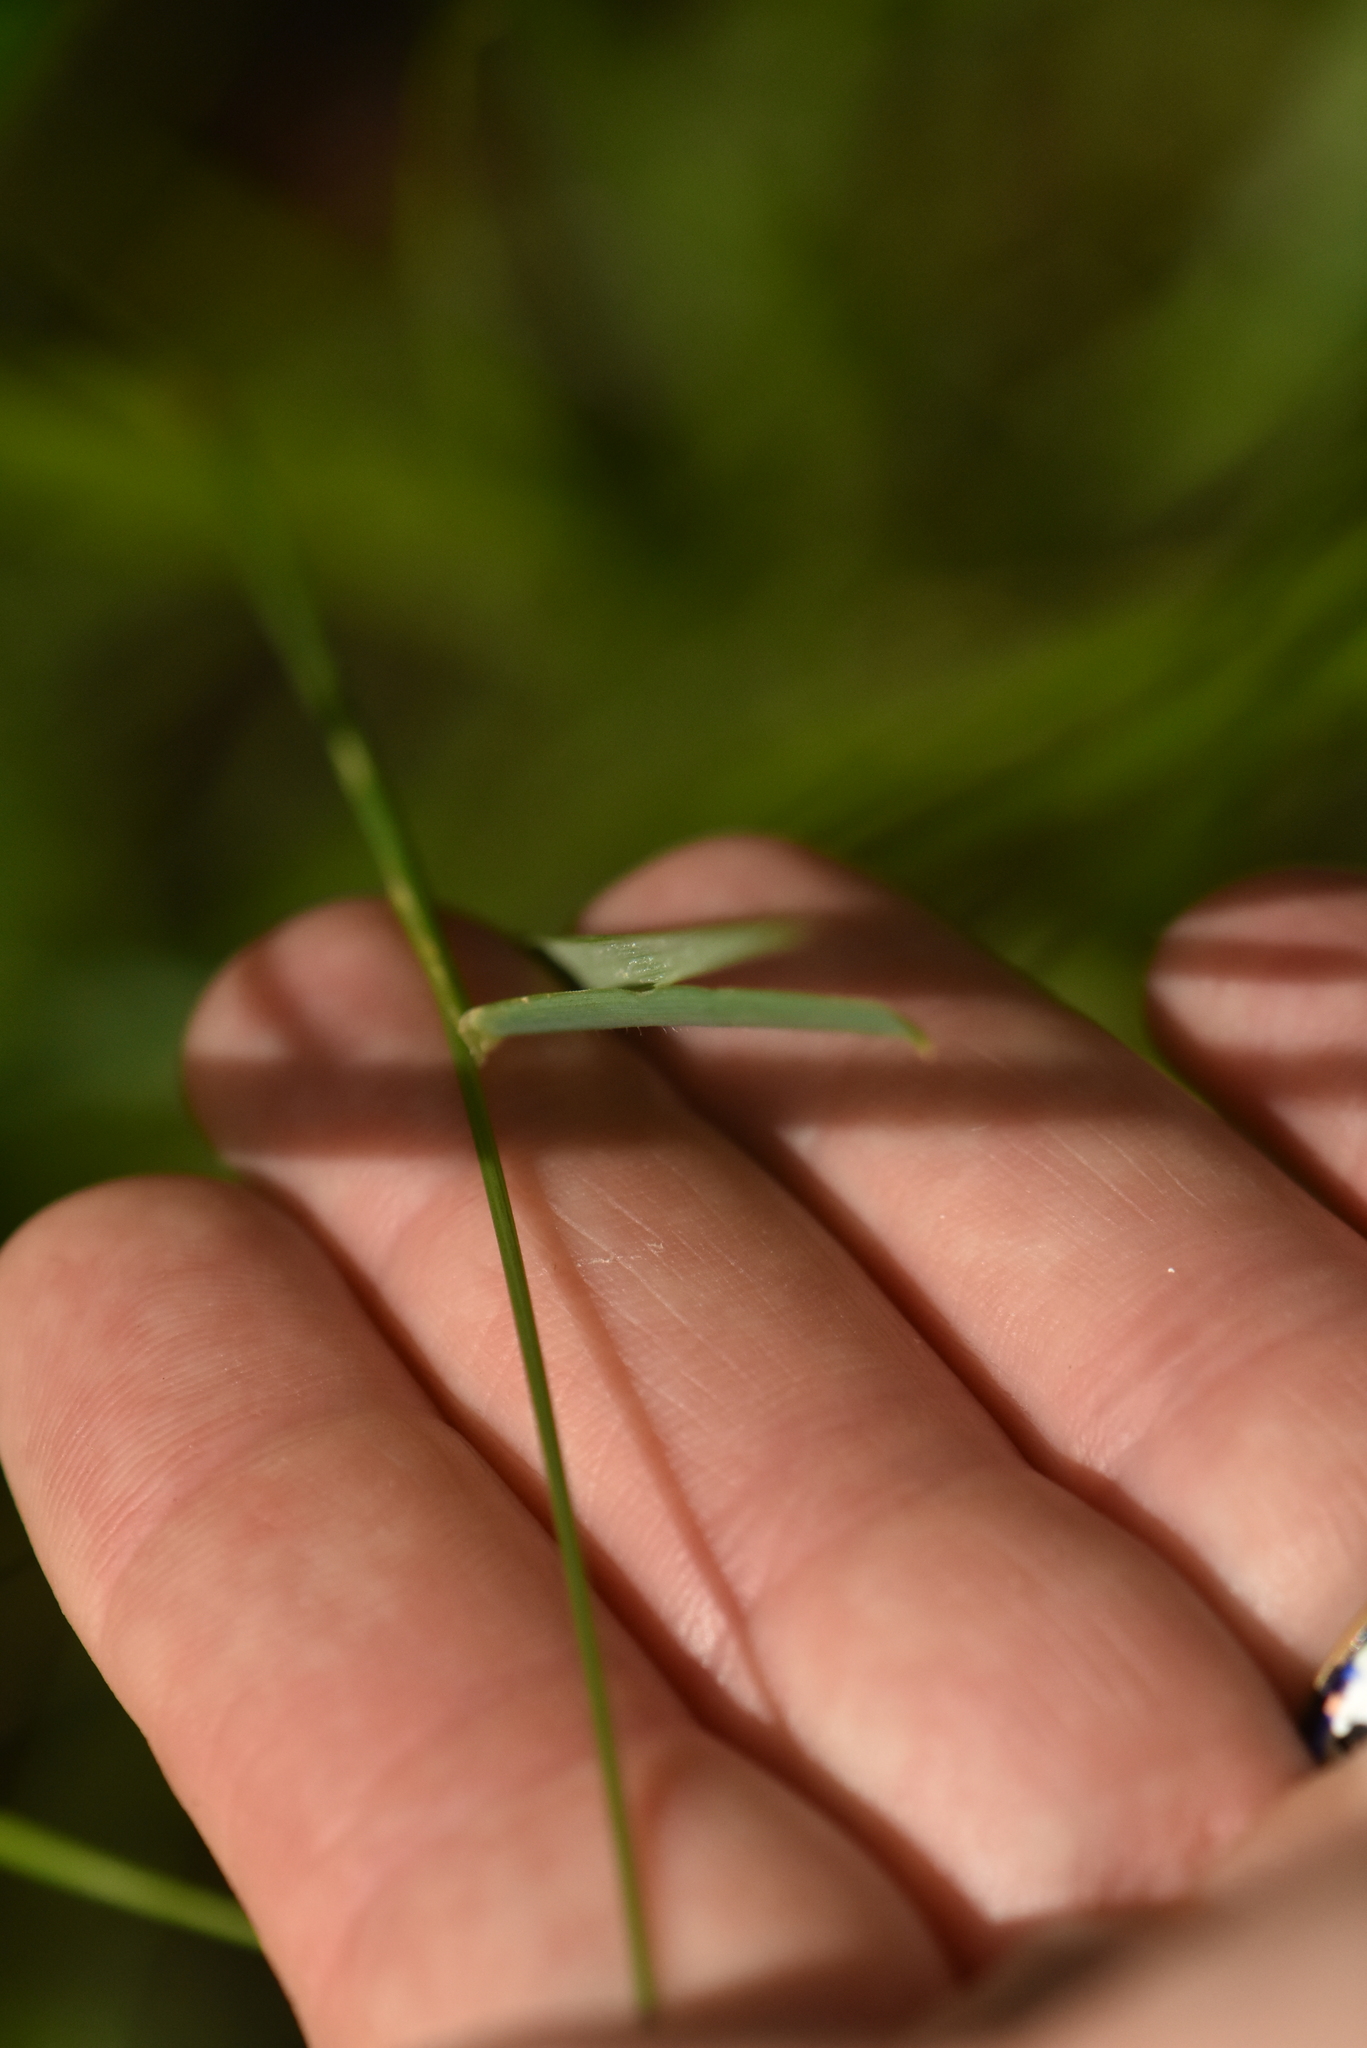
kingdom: Plantae
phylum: Tracheophyta
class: Liliopsida
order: Poales
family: Poaceae
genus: Anthoxanthum
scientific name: Anthoxanthum odoratum
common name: Sweet vernalgrass
